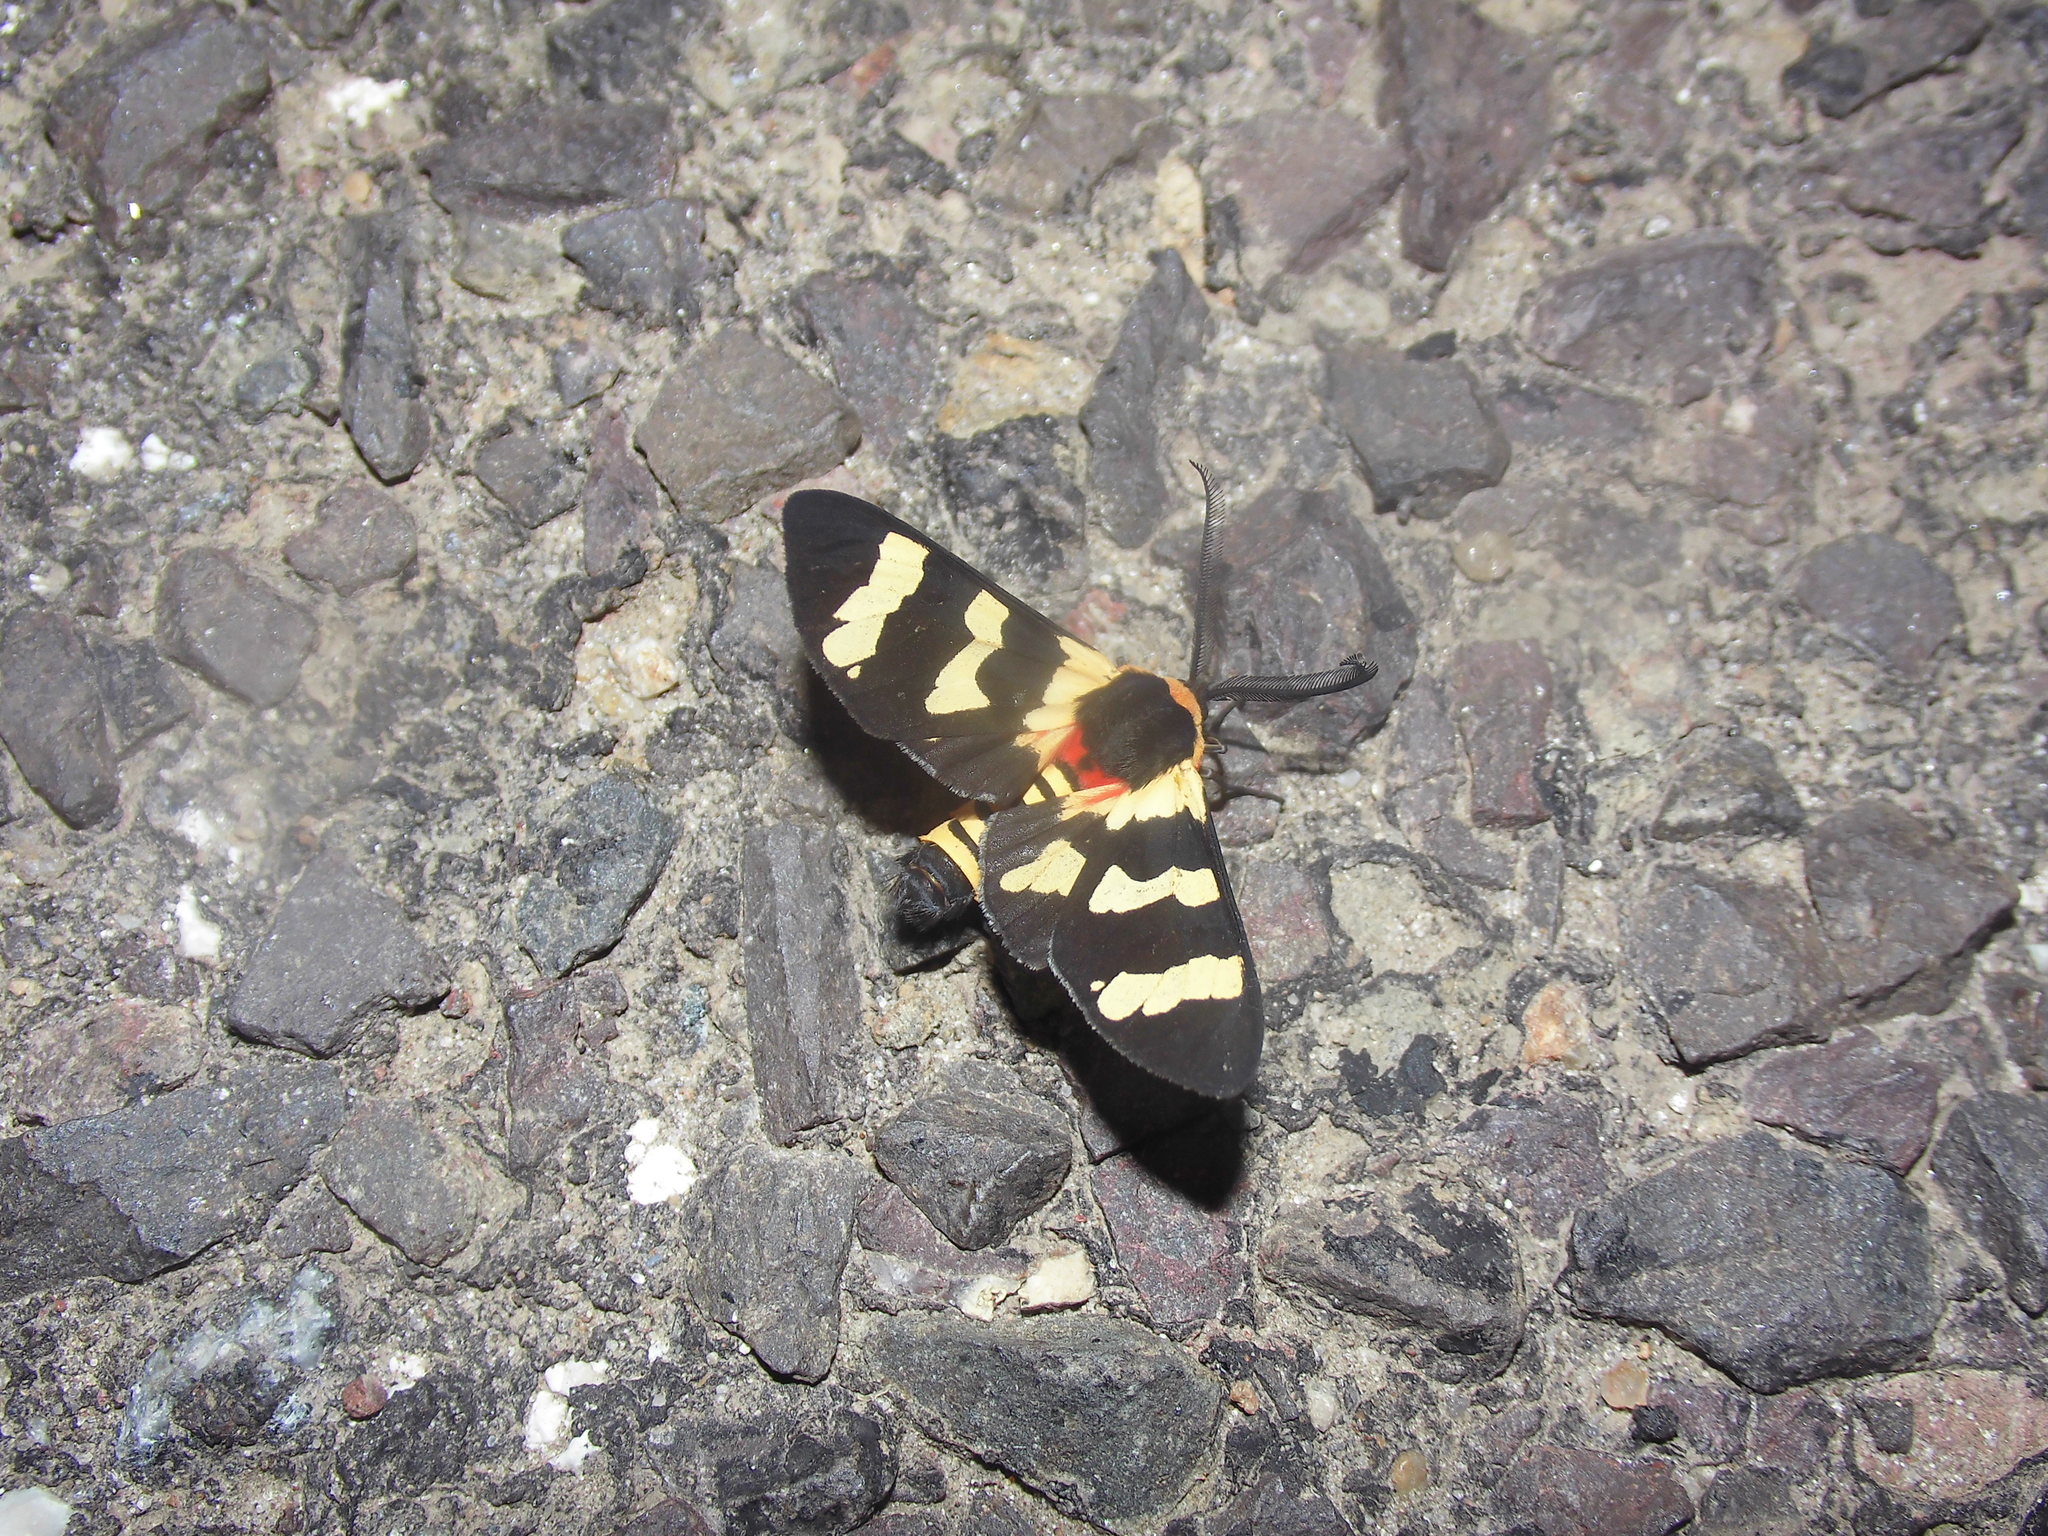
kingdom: Animalia
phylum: Arthropoda
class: Insecta
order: Lepidoptera
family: Erebidae
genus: Eurata
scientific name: Eurata hilaris
